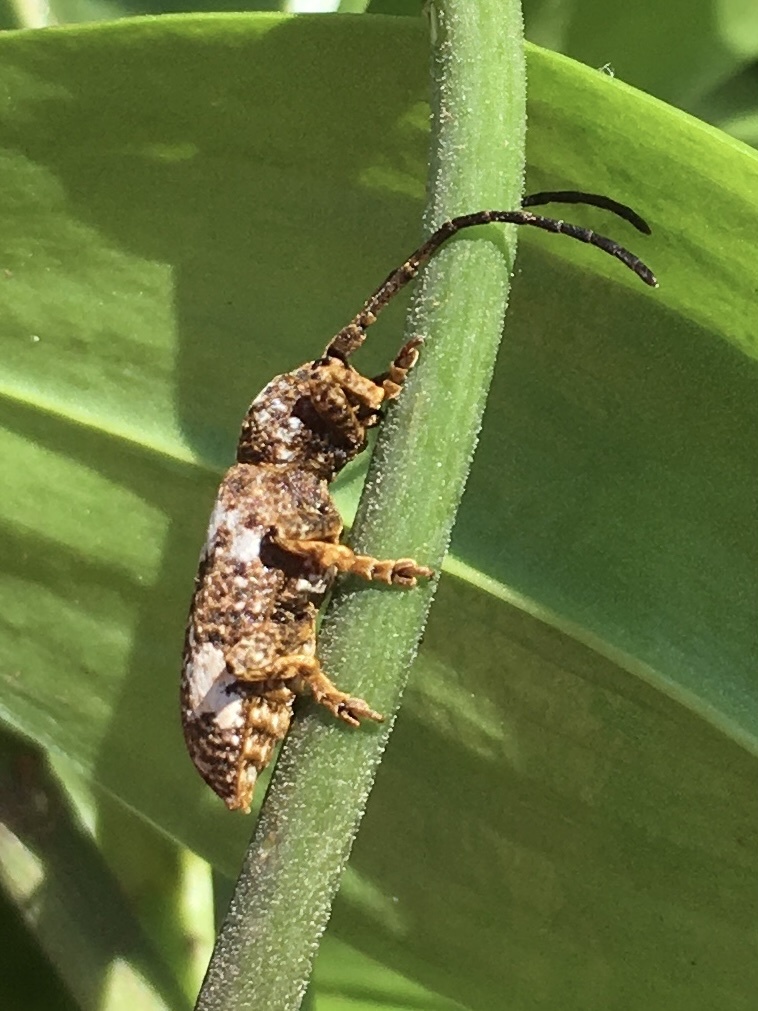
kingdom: Animalia
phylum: Arthropoda
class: Insecta
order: Coleoptera
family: Cerambycidae
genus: Apomecyna
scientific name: Apomecyna latefasciata
